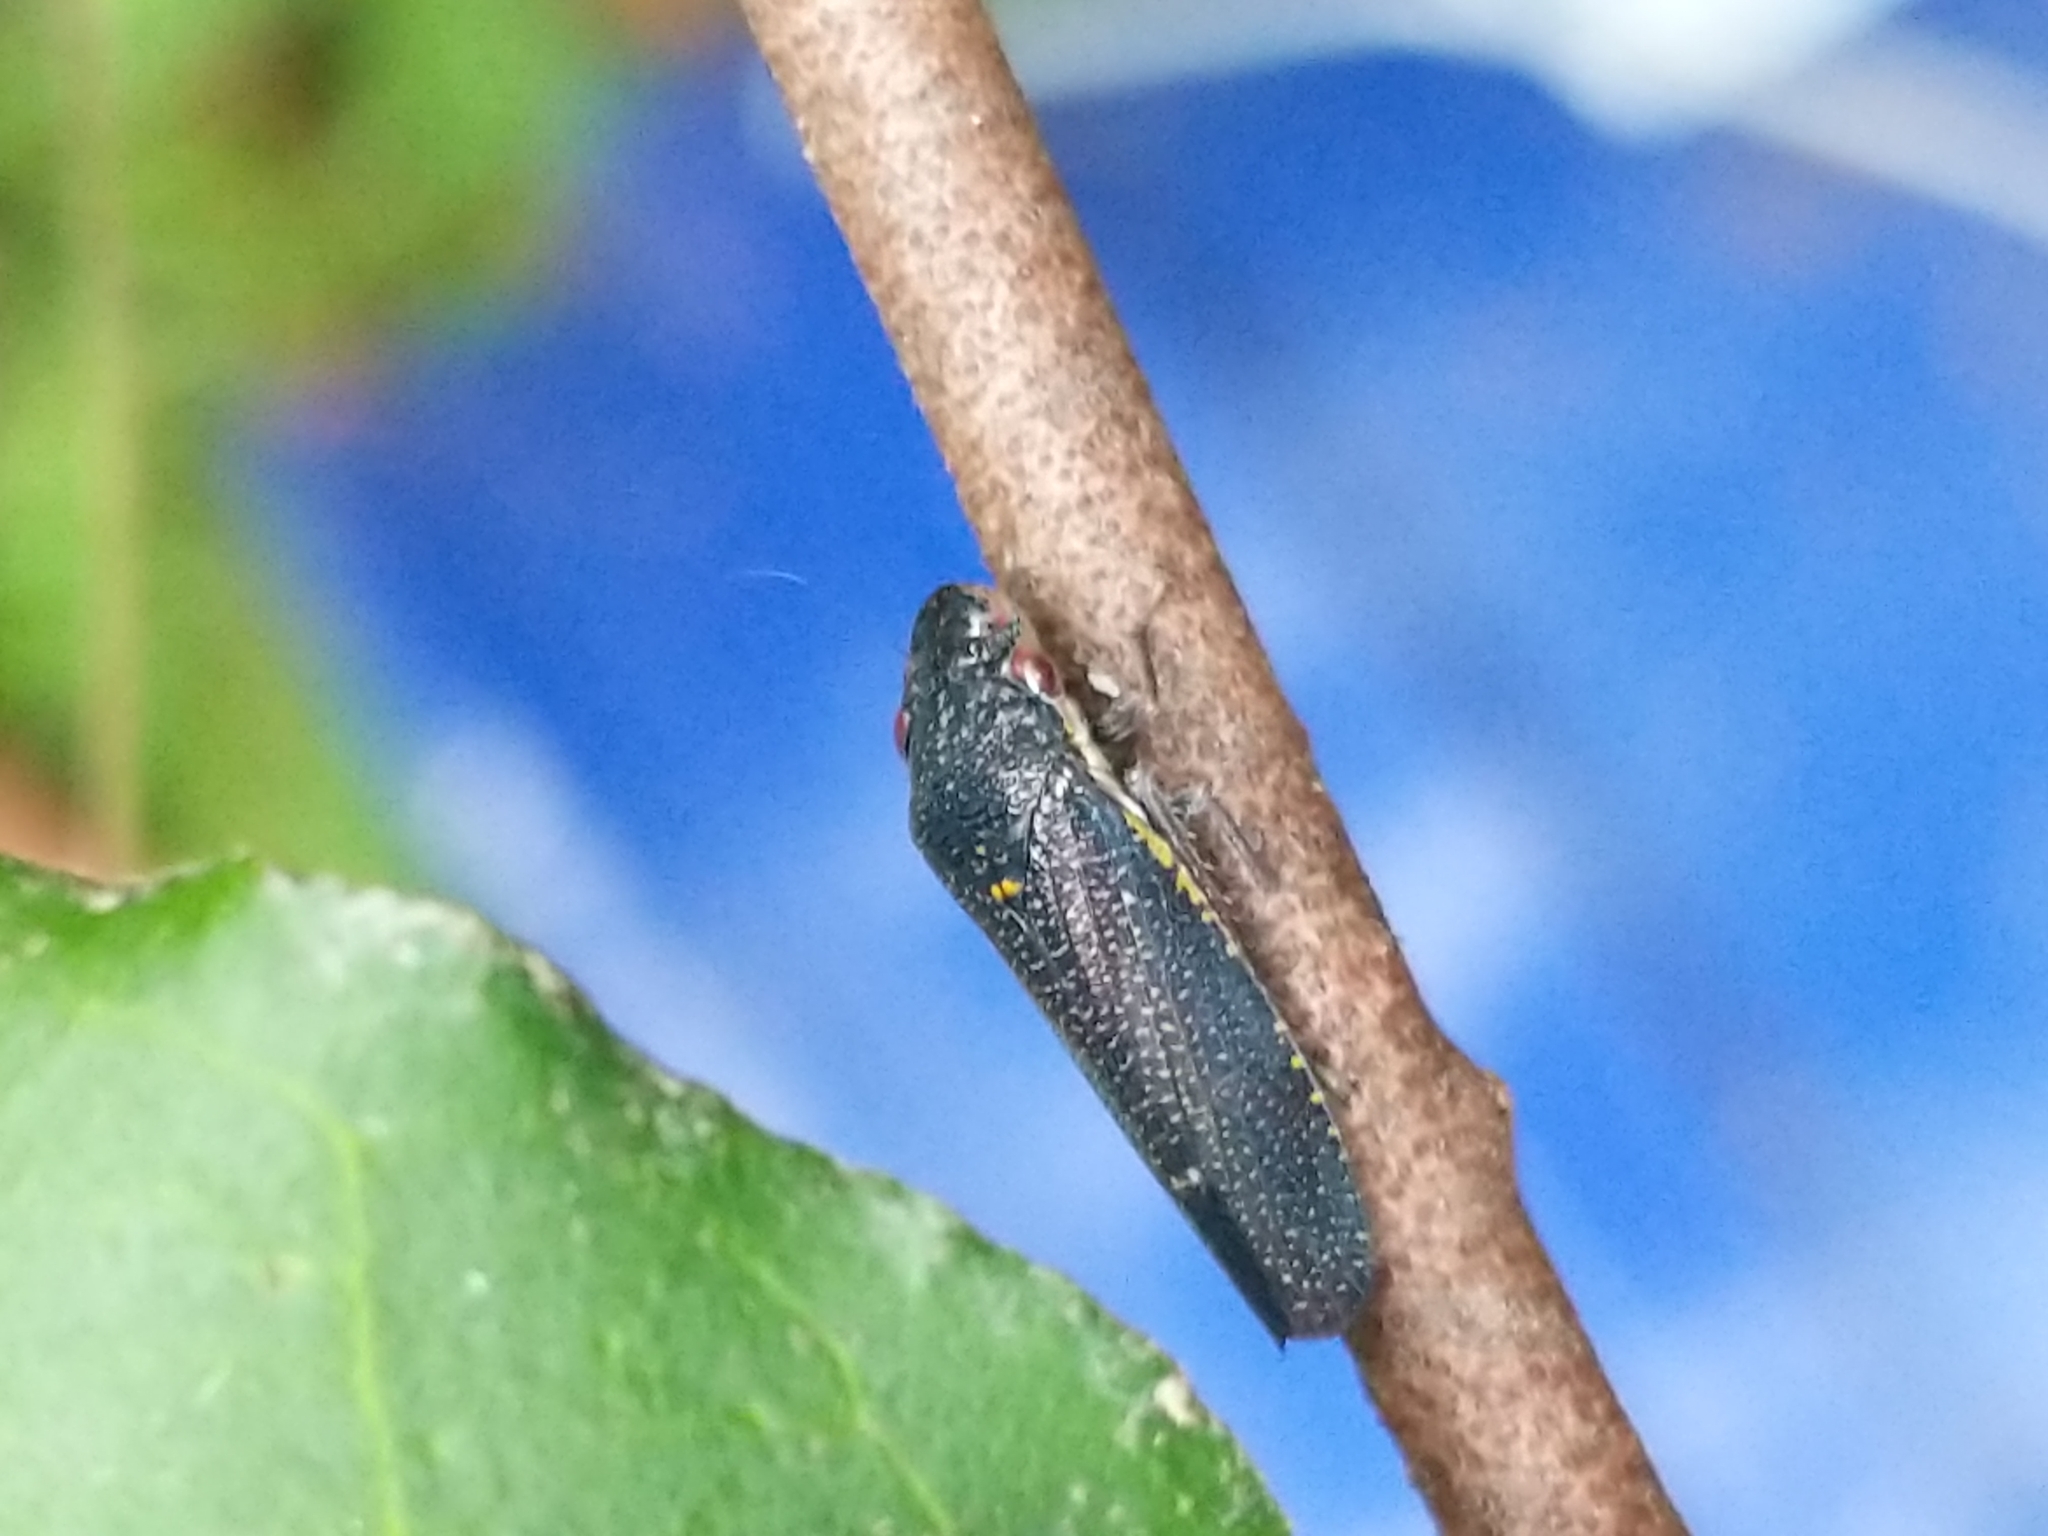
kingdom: Animalia
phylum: Arthropoda
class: Insecta
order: Hemiptera
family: Cicadellidae
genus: Paraulacizes
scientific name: Paraulacizes irrorata
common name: Speckled sharpshooter
